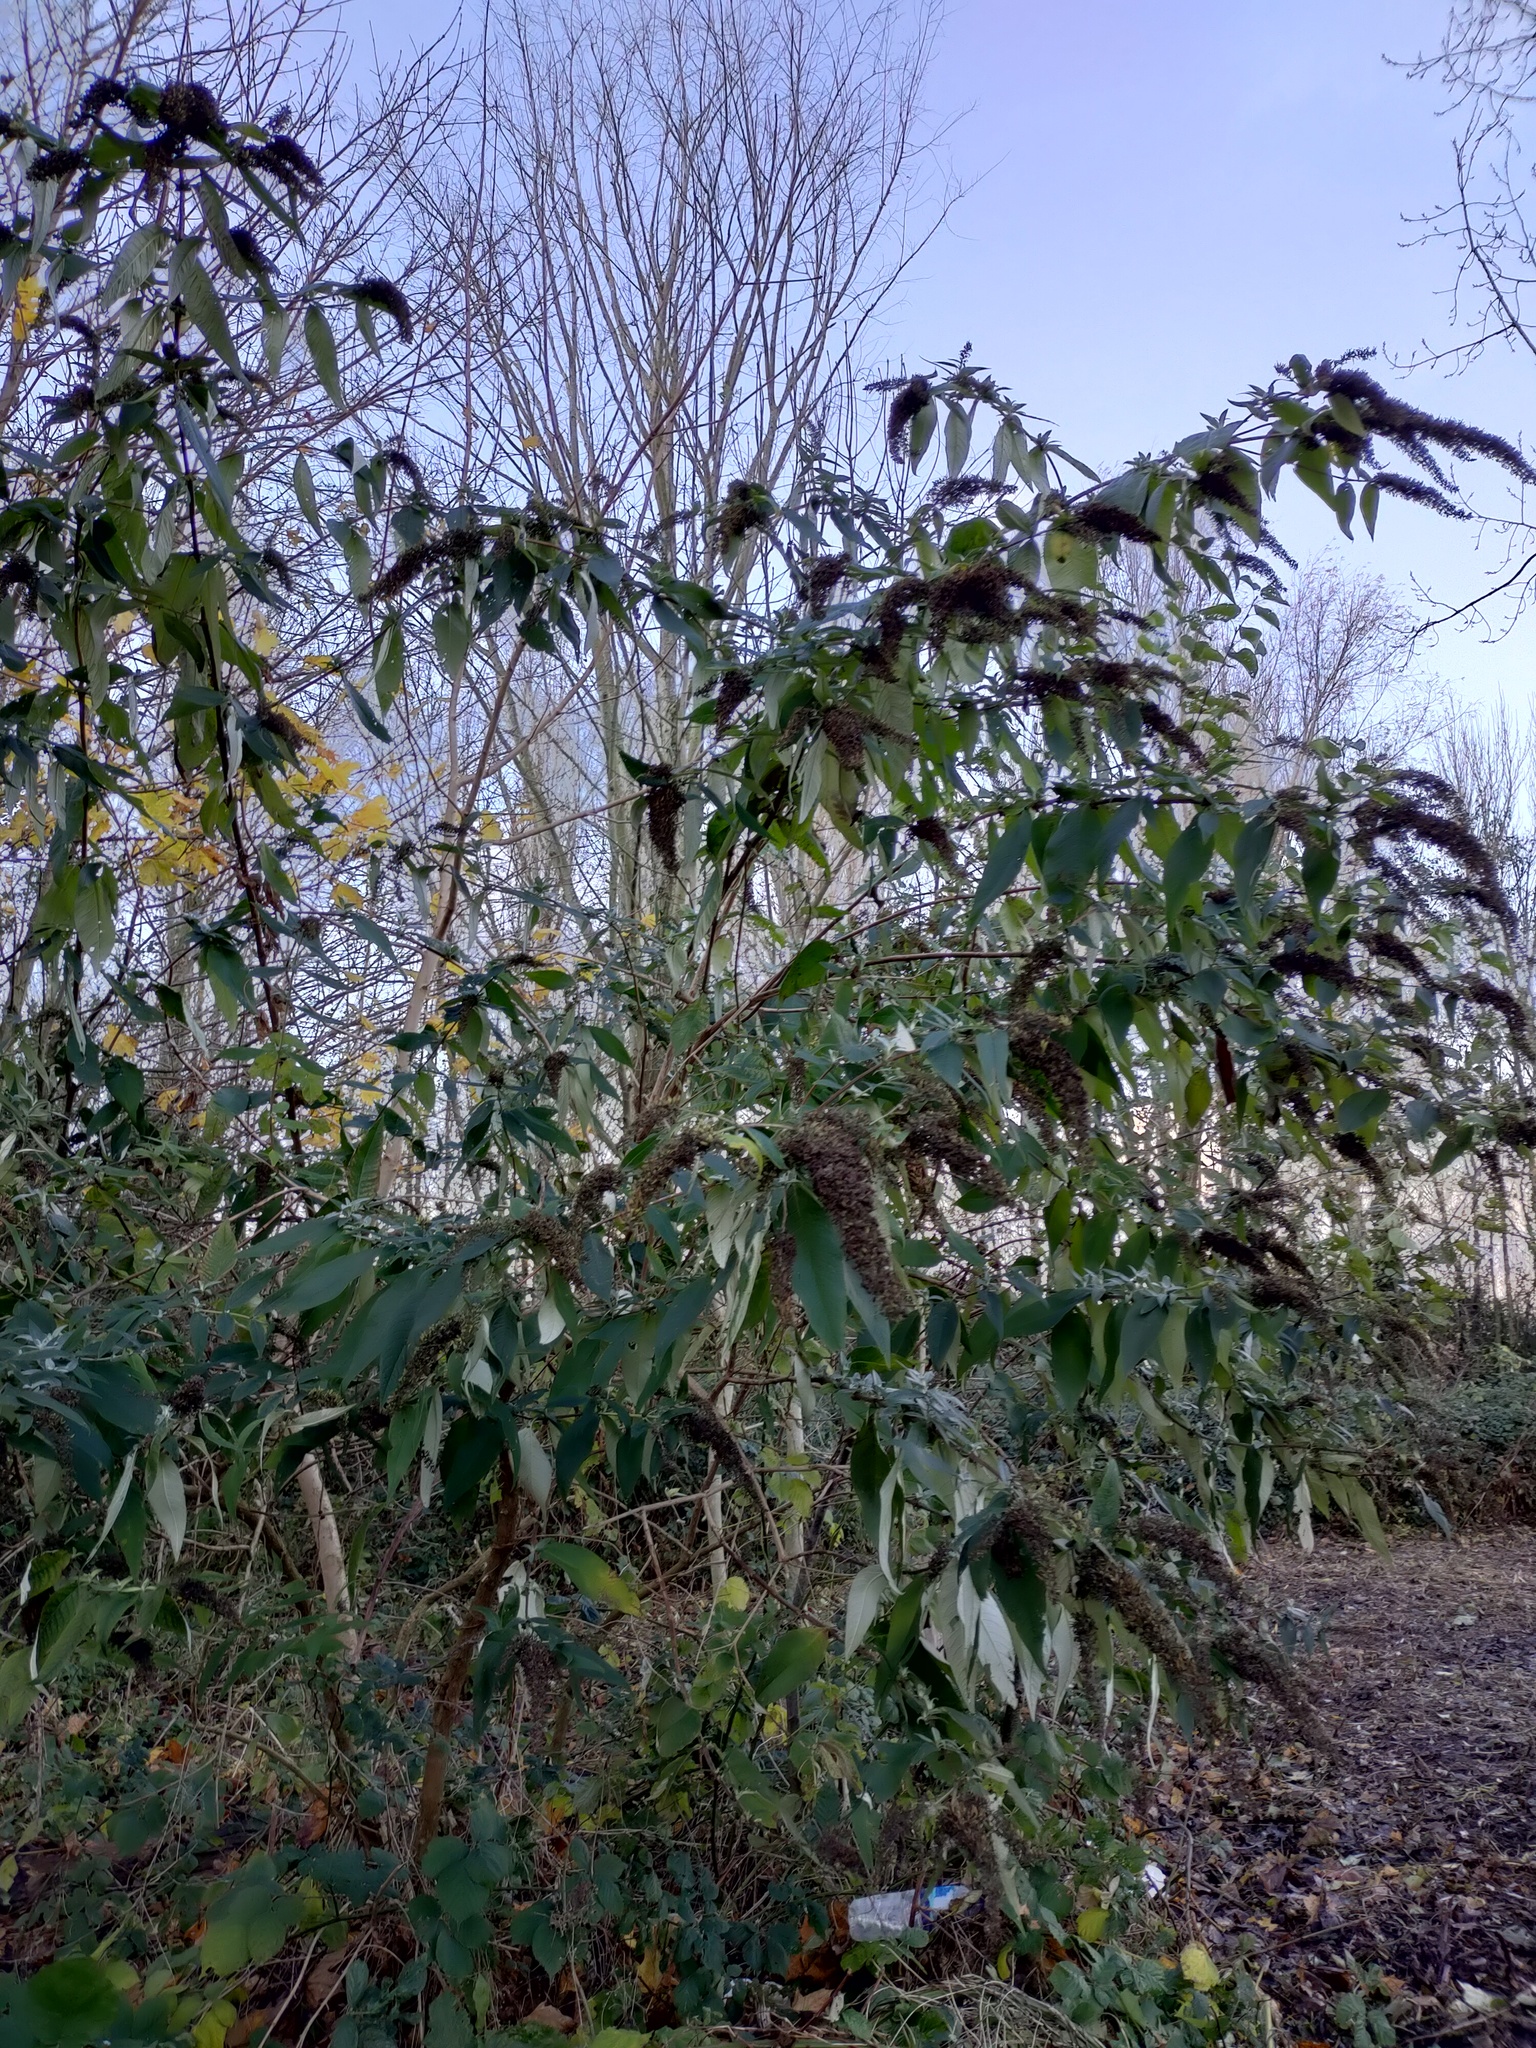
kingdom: Plantae
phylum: Tracheophyta
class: Magnoliopsida
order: Lamiales
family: Scrophulariaceae
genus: Buddleja
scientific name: Buddleja davidii
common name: Butterfly-bush
